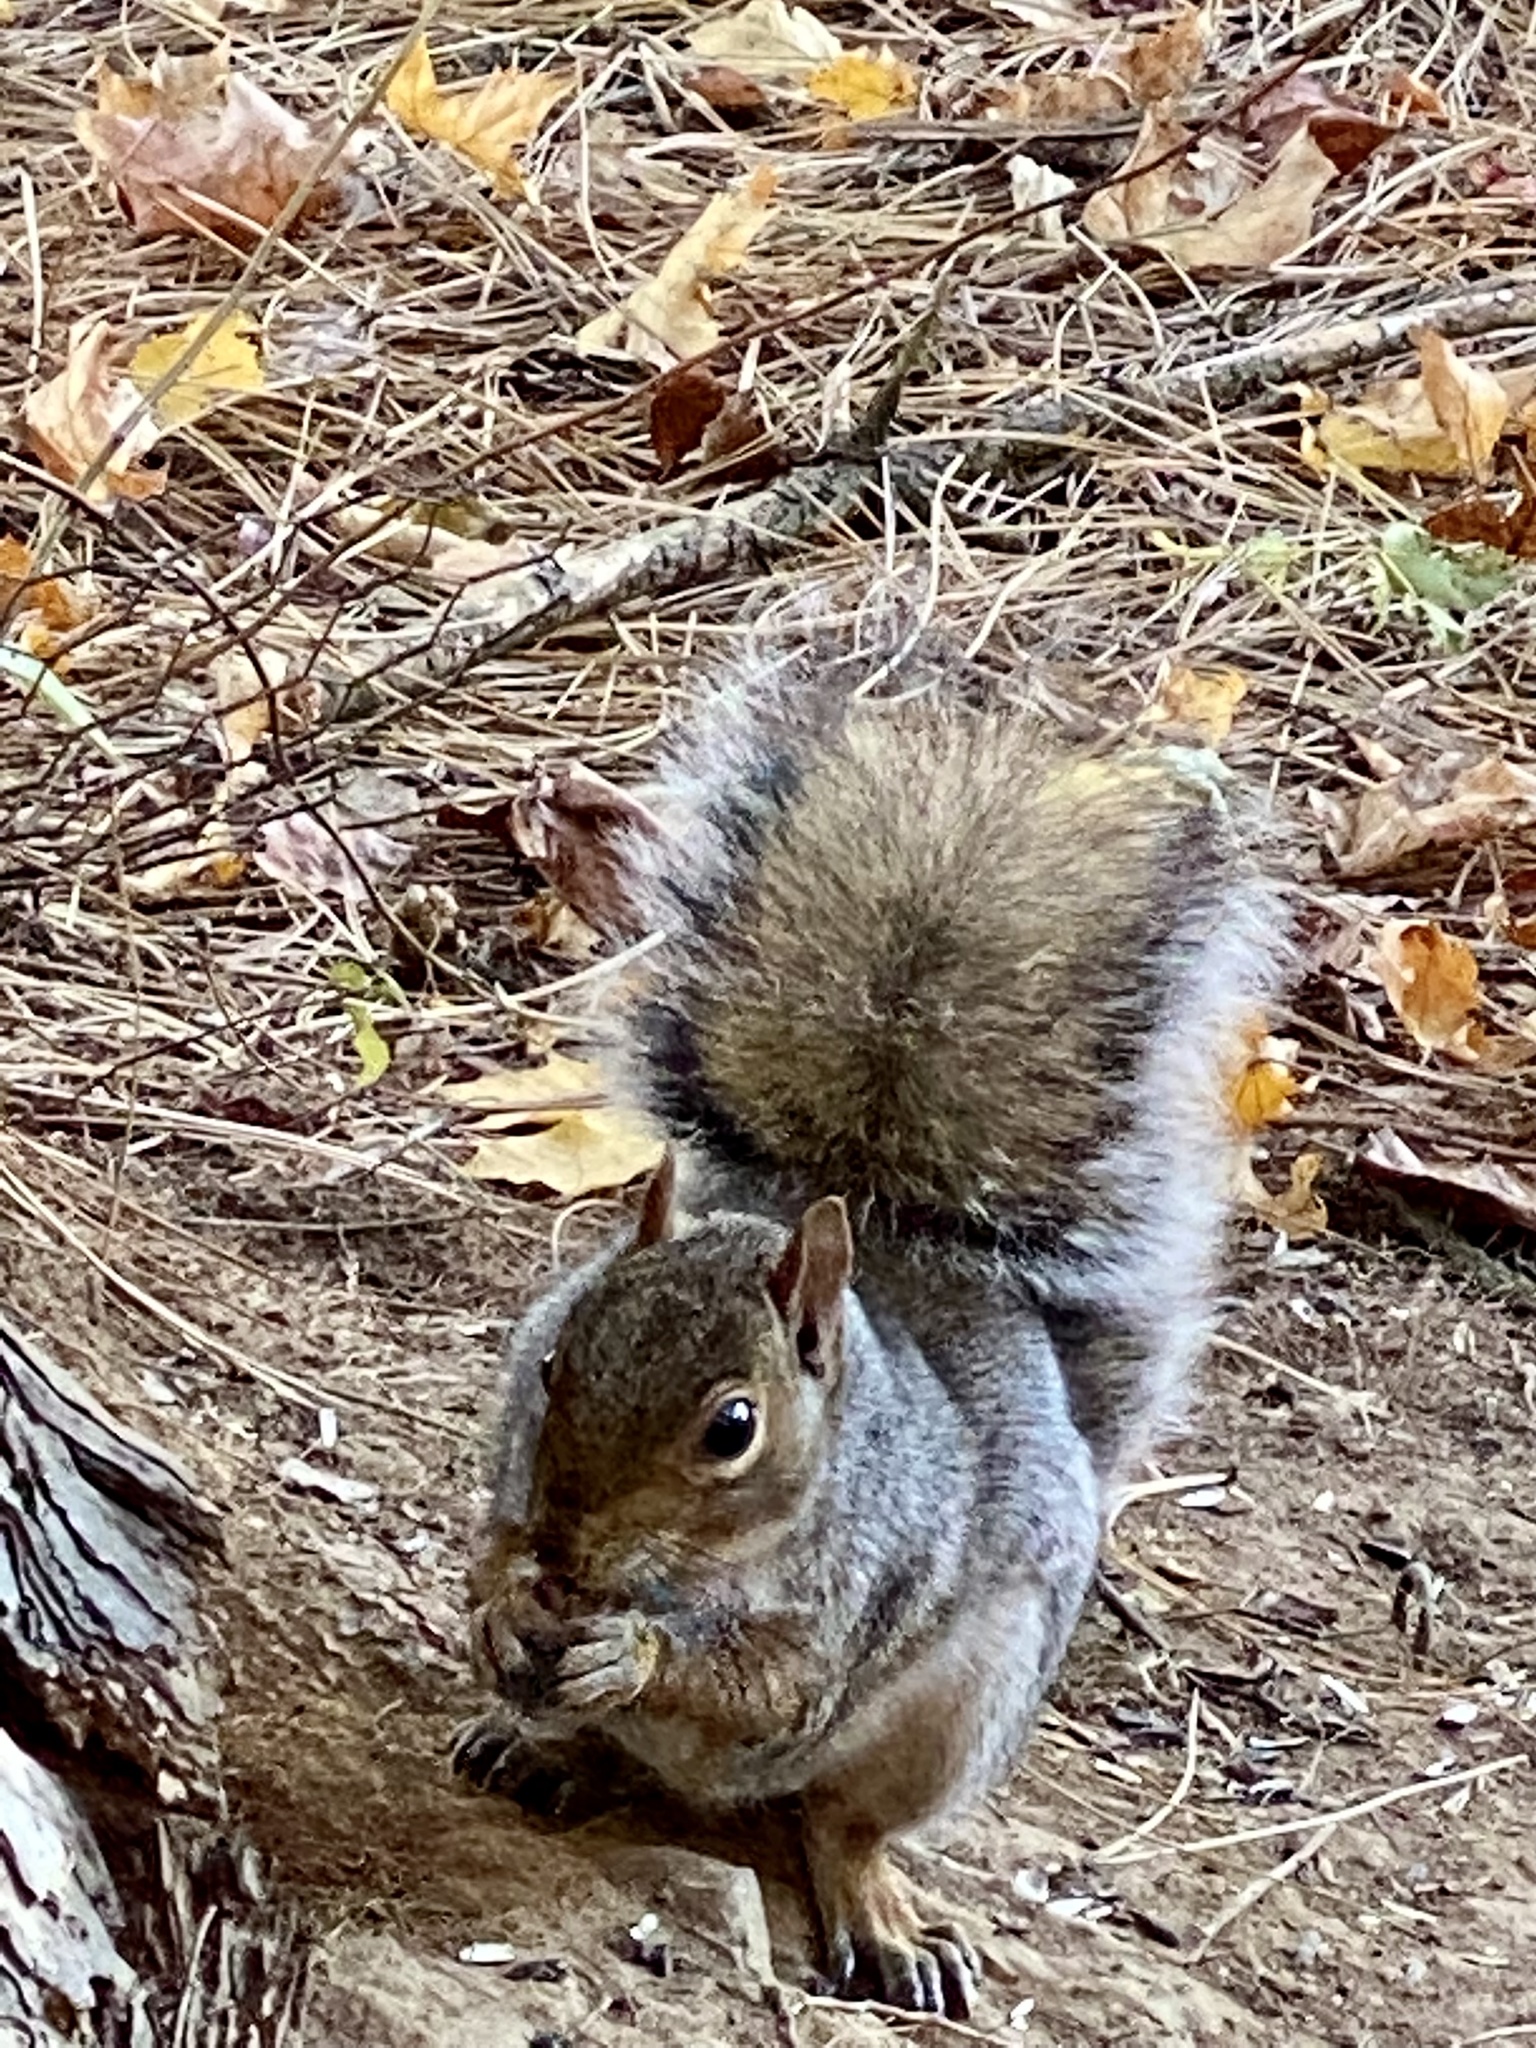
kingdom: Animalia
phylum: Chordata
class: Mammalia
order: Rodentia
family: Sciuridae
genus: Sciurus
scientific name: Sciurus carolinensis
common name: Eastern gray squirrel
